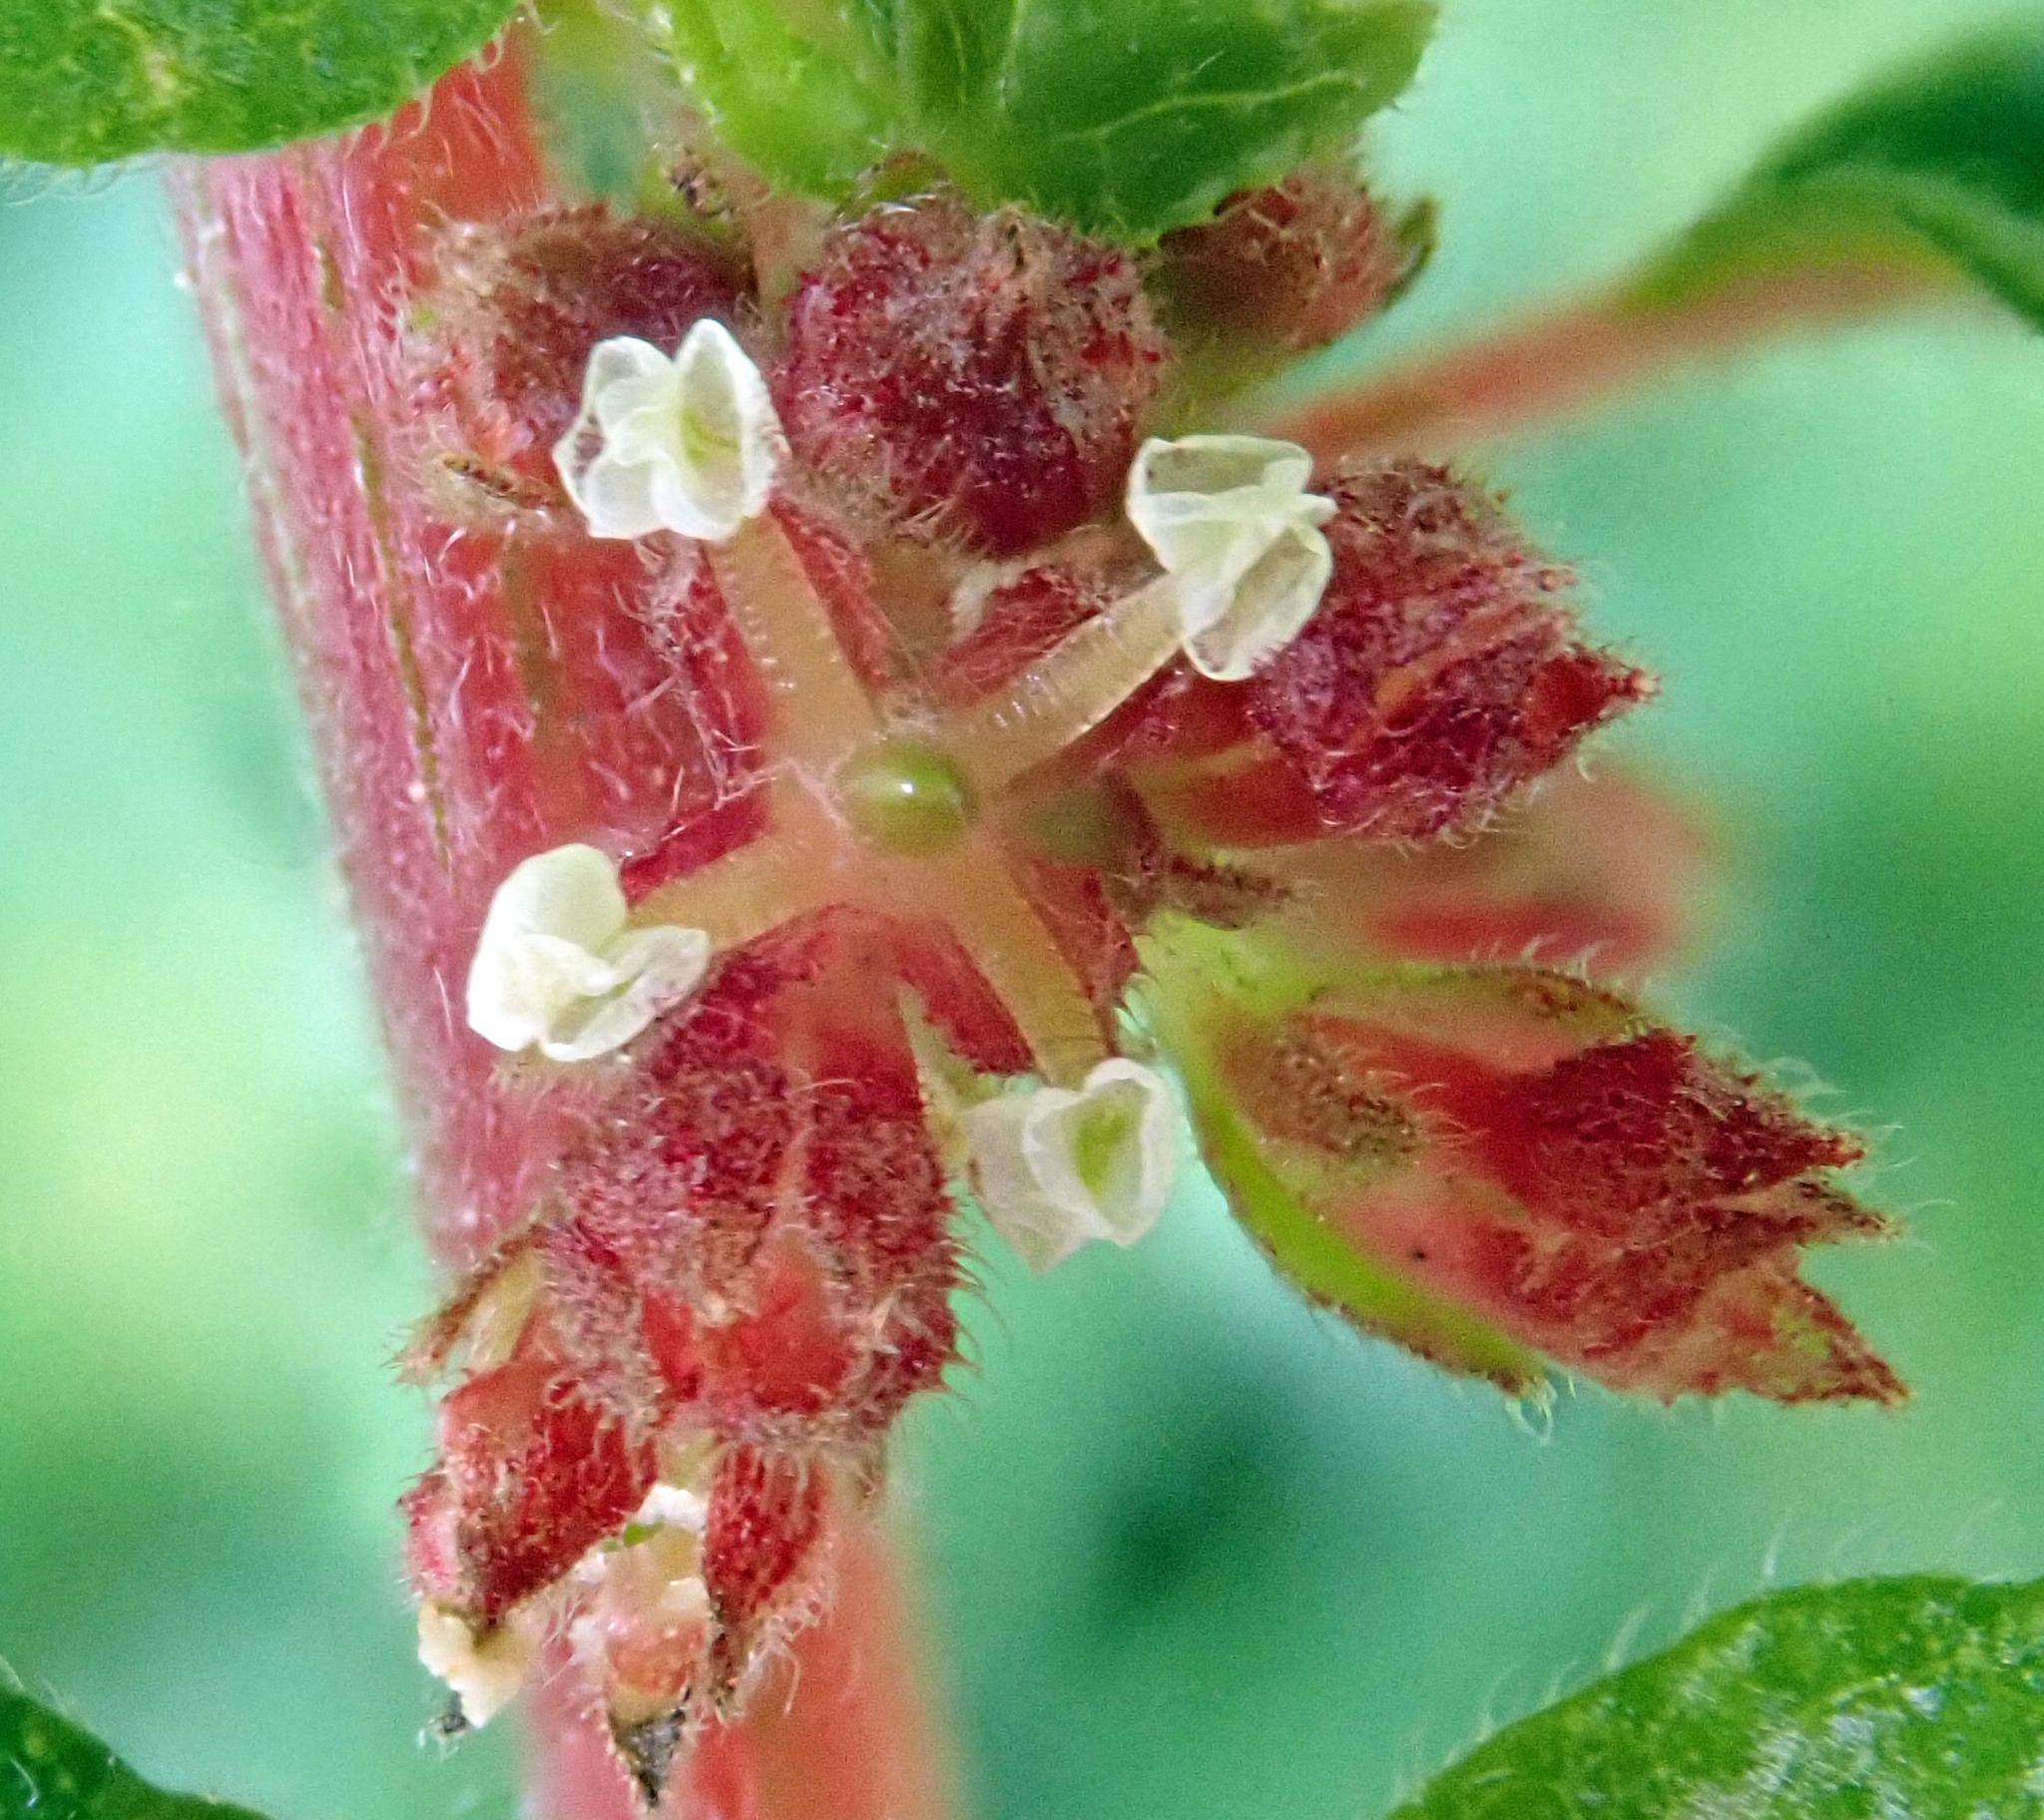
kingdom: Plantae
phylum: Tracheophyta
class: Magnoliopsida
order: Rosales
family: Urticaceae
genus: Parietaria
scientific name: Parietaria judaica
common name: Pellitory-of-the-wall
